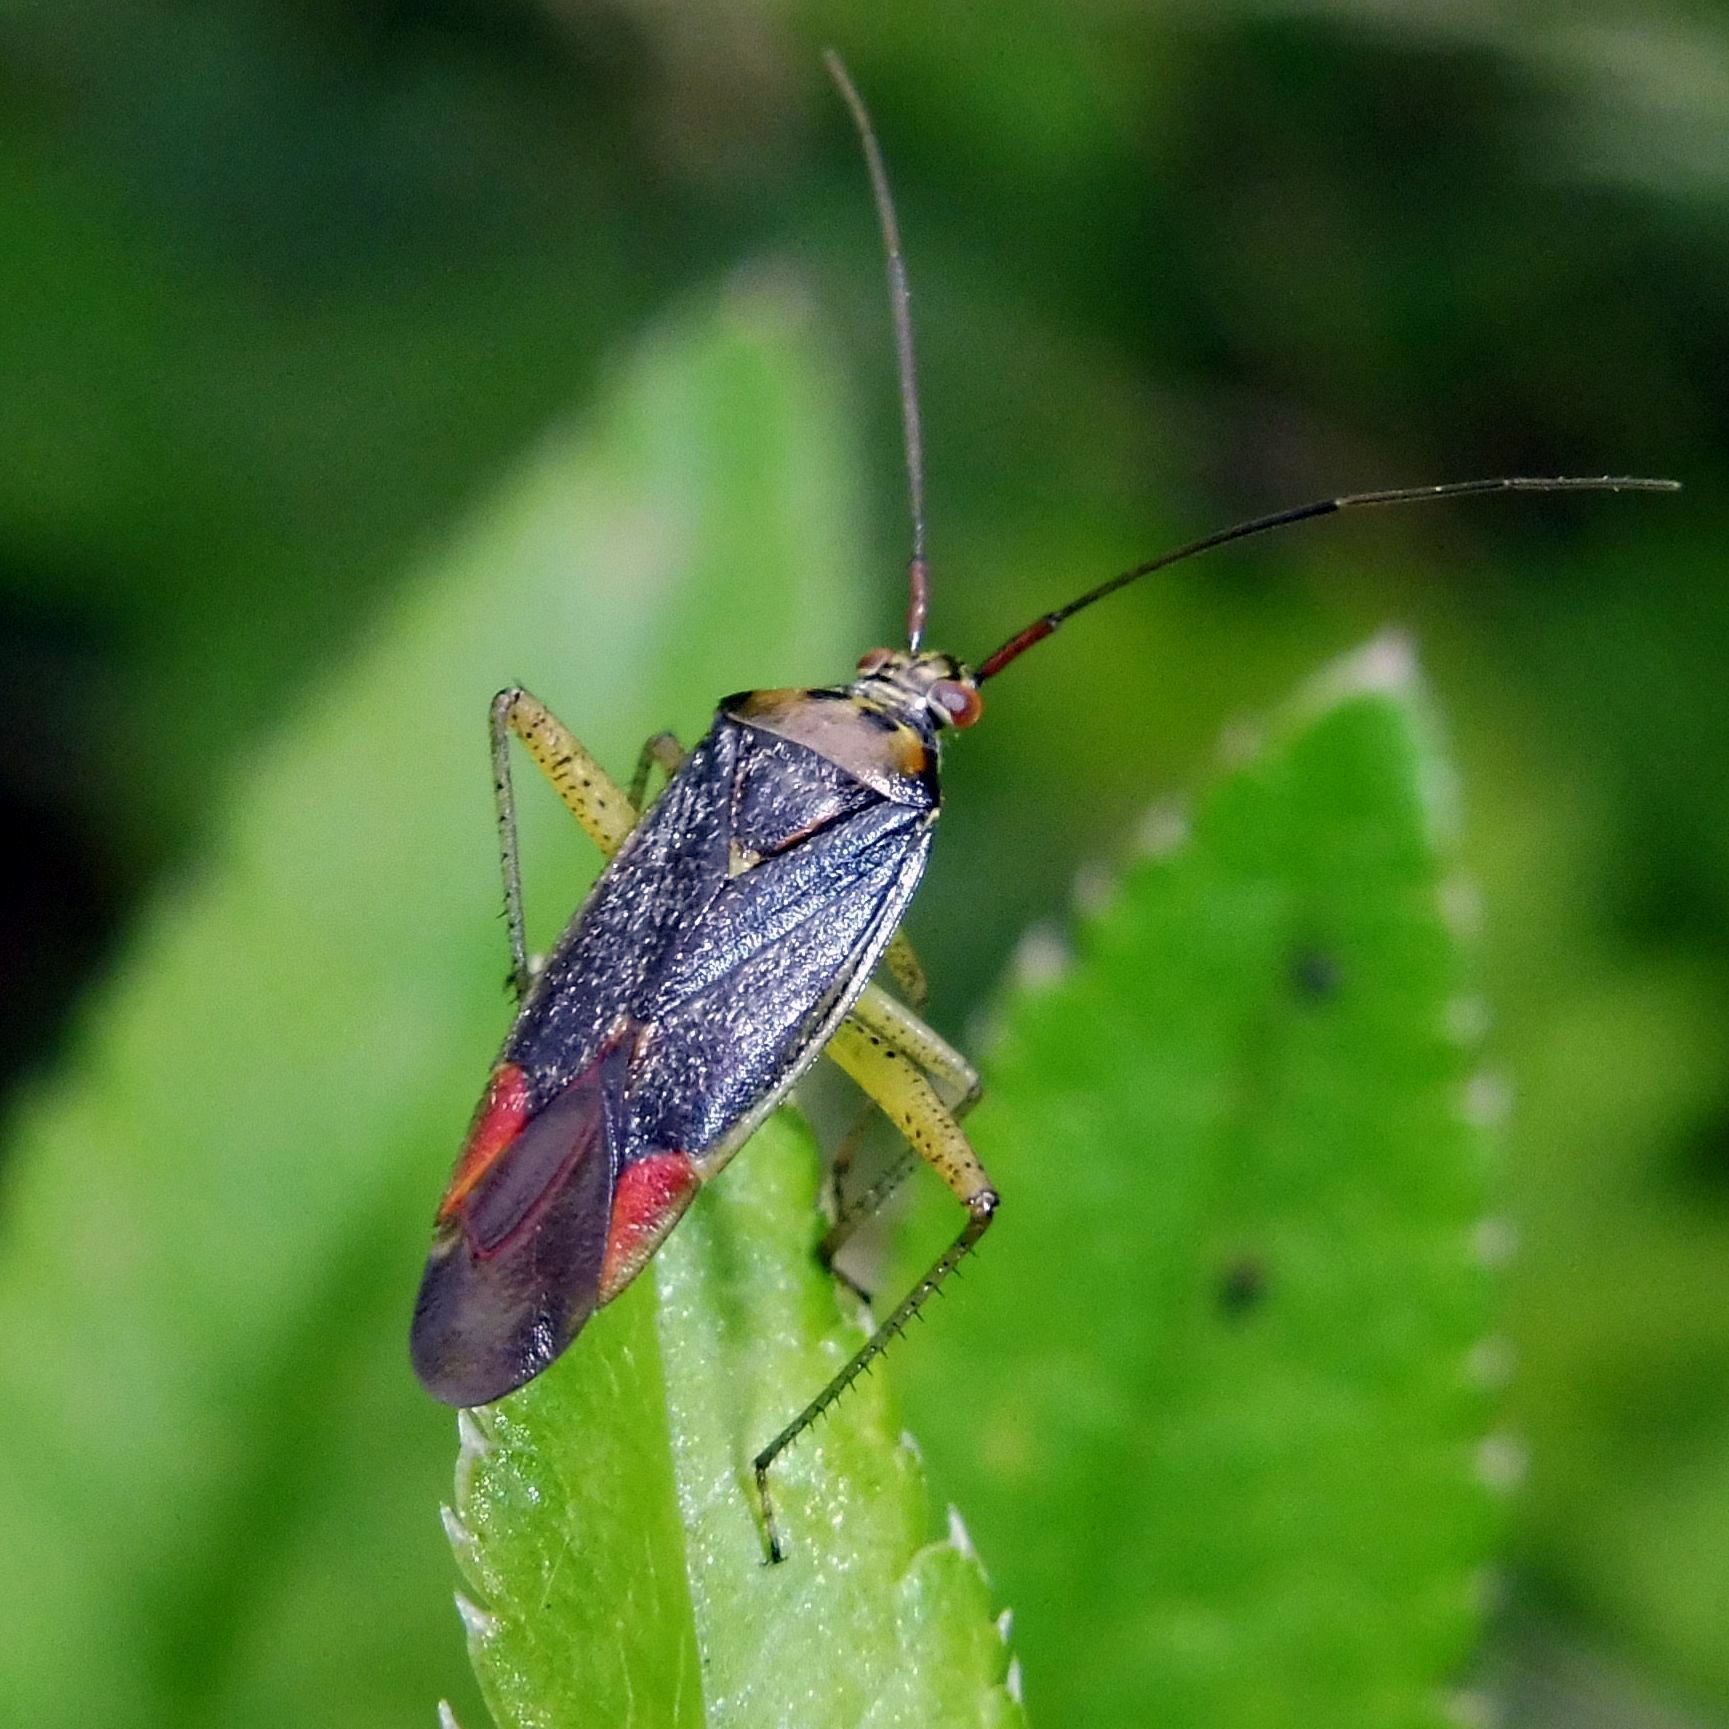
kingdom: Animalia
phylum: Arthropoda
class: Insecta
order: Hemiptera
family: Miridae
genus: Closterotomus
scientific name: Closterotomus trivialis
